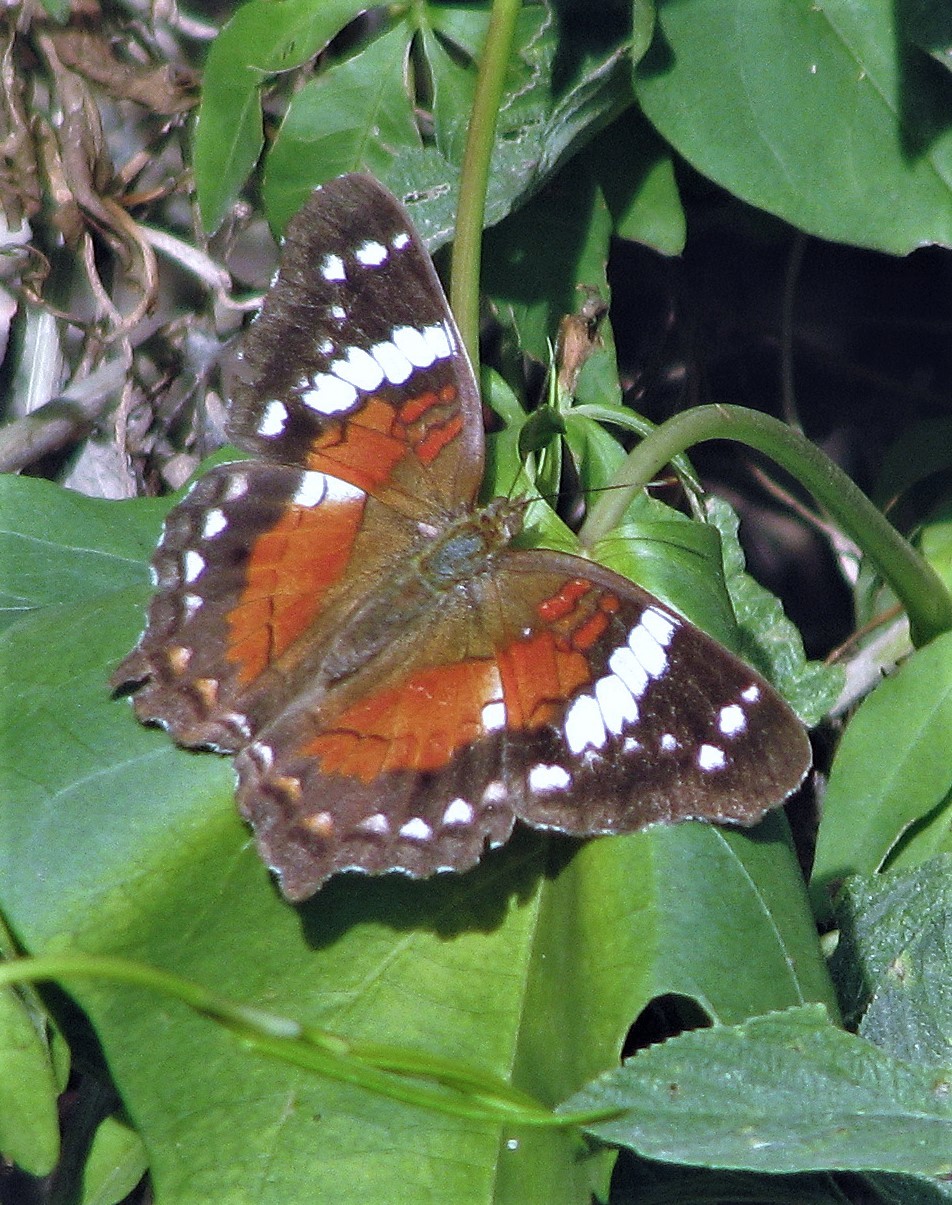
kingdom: Animalia
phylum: Arthropoda
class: Insecta
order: Lepidoptera
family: Nymphalidae
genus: Anartia
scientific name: Anartia amathea
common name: Red peacock
